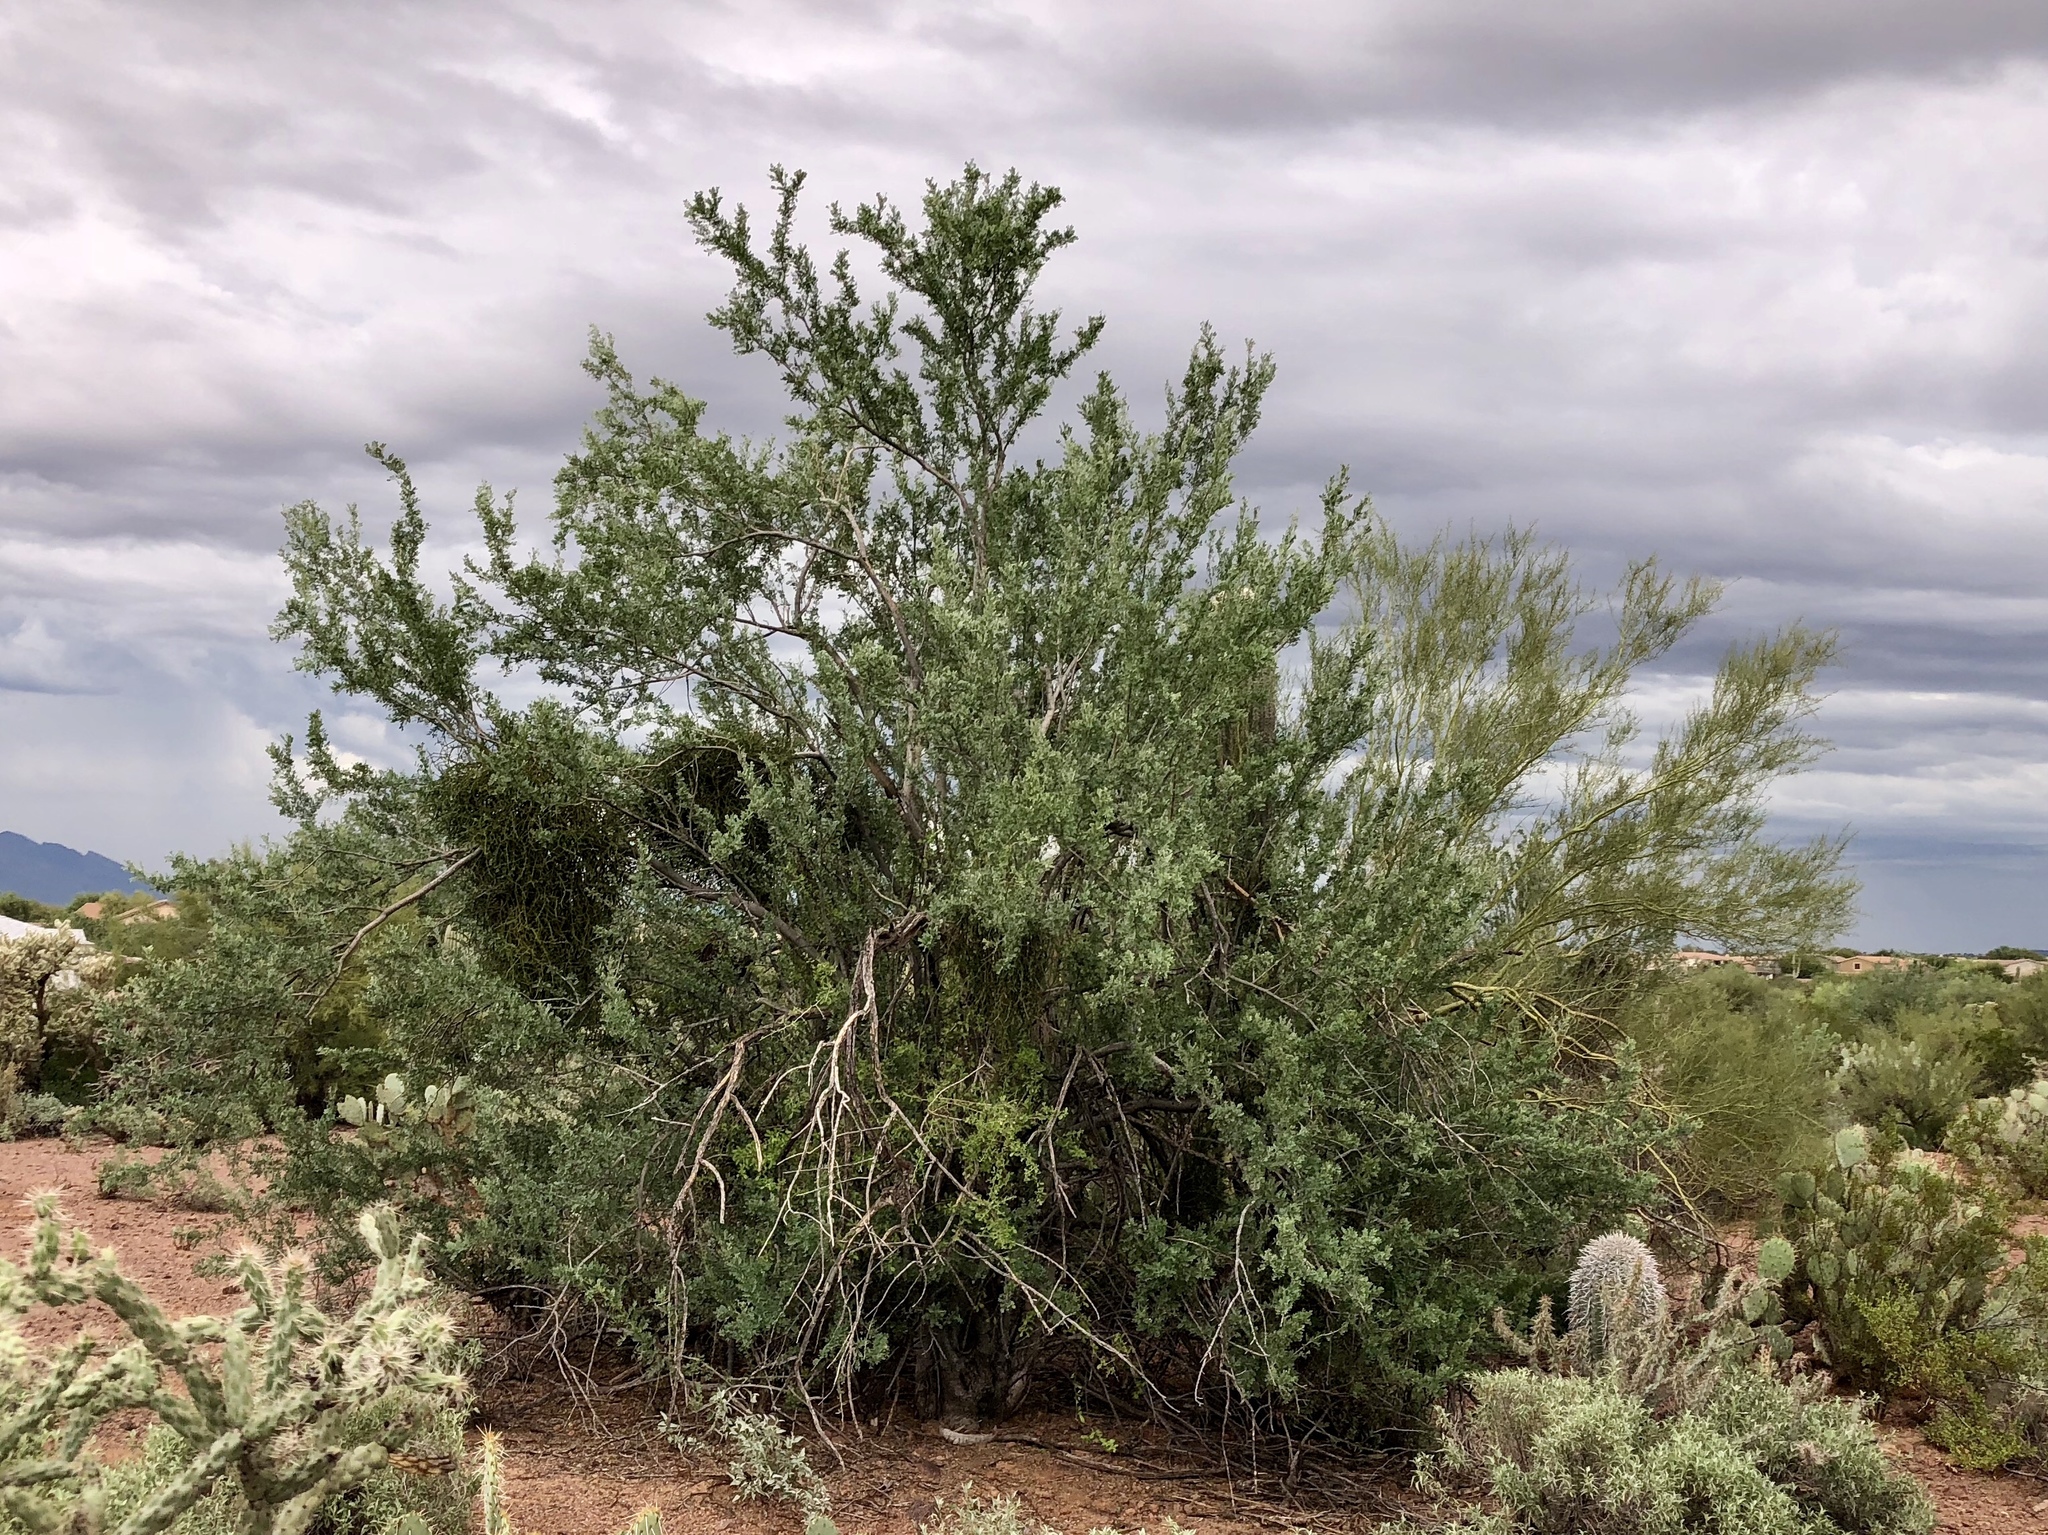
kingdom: Plantae
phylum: Tracheophyta
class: Magnoliopsida
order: Fabales
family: Fabaceae
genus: Olneya
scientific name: Olneya tesota
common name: Desert ironwood
